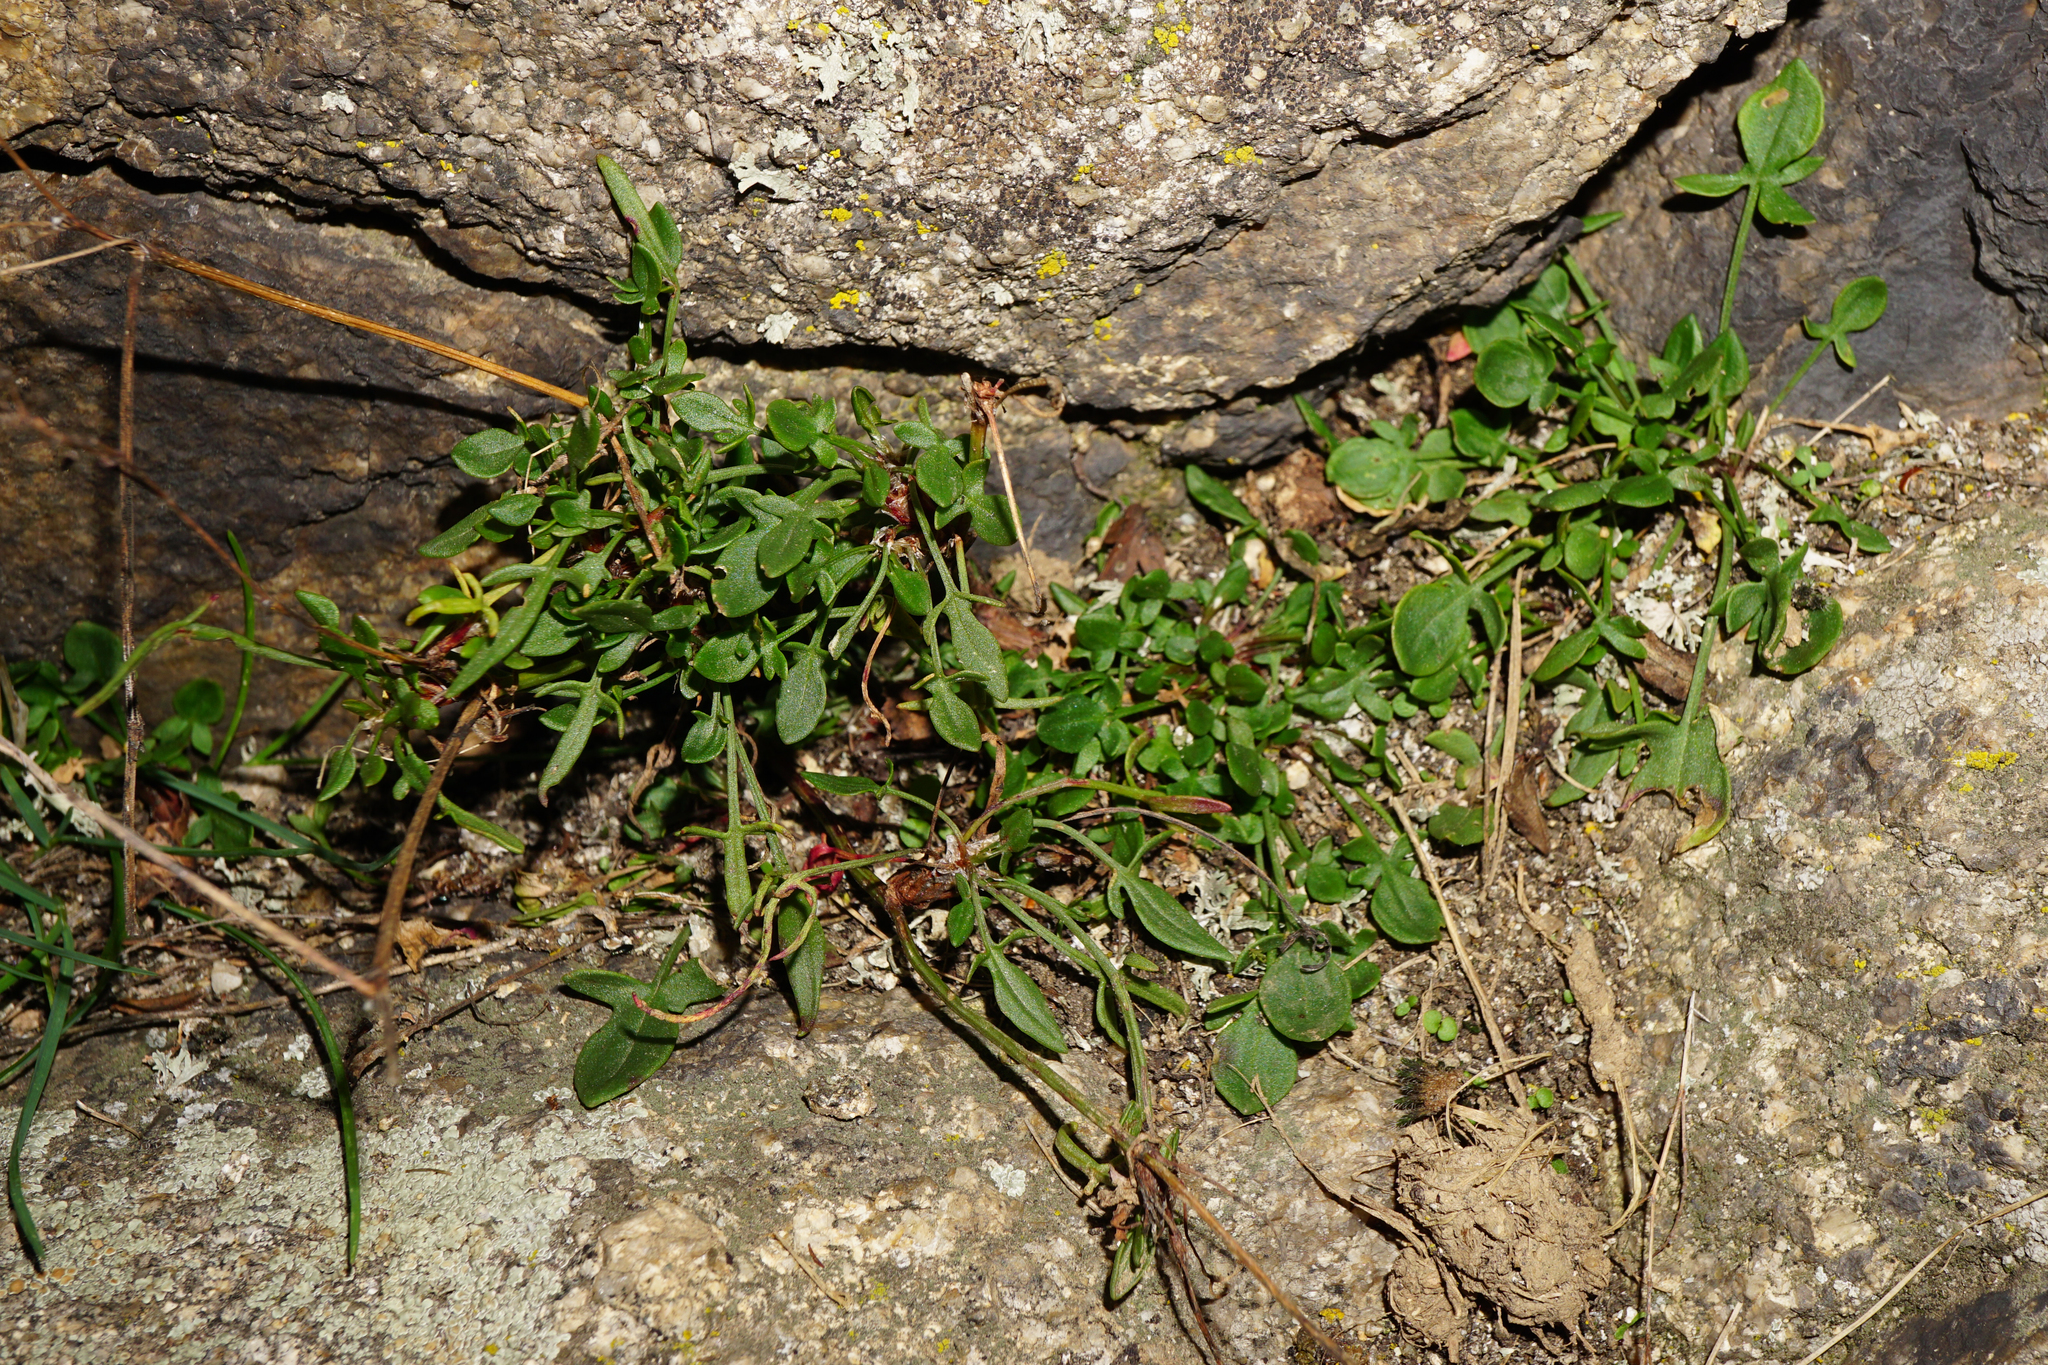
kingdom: Plantae
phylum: Tracheophyta
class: Magnoliopsida
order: Caryophyllales
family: Polygonaceae
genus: Rumex
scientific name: Rumex acetosella
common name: Common sheep sorrel
